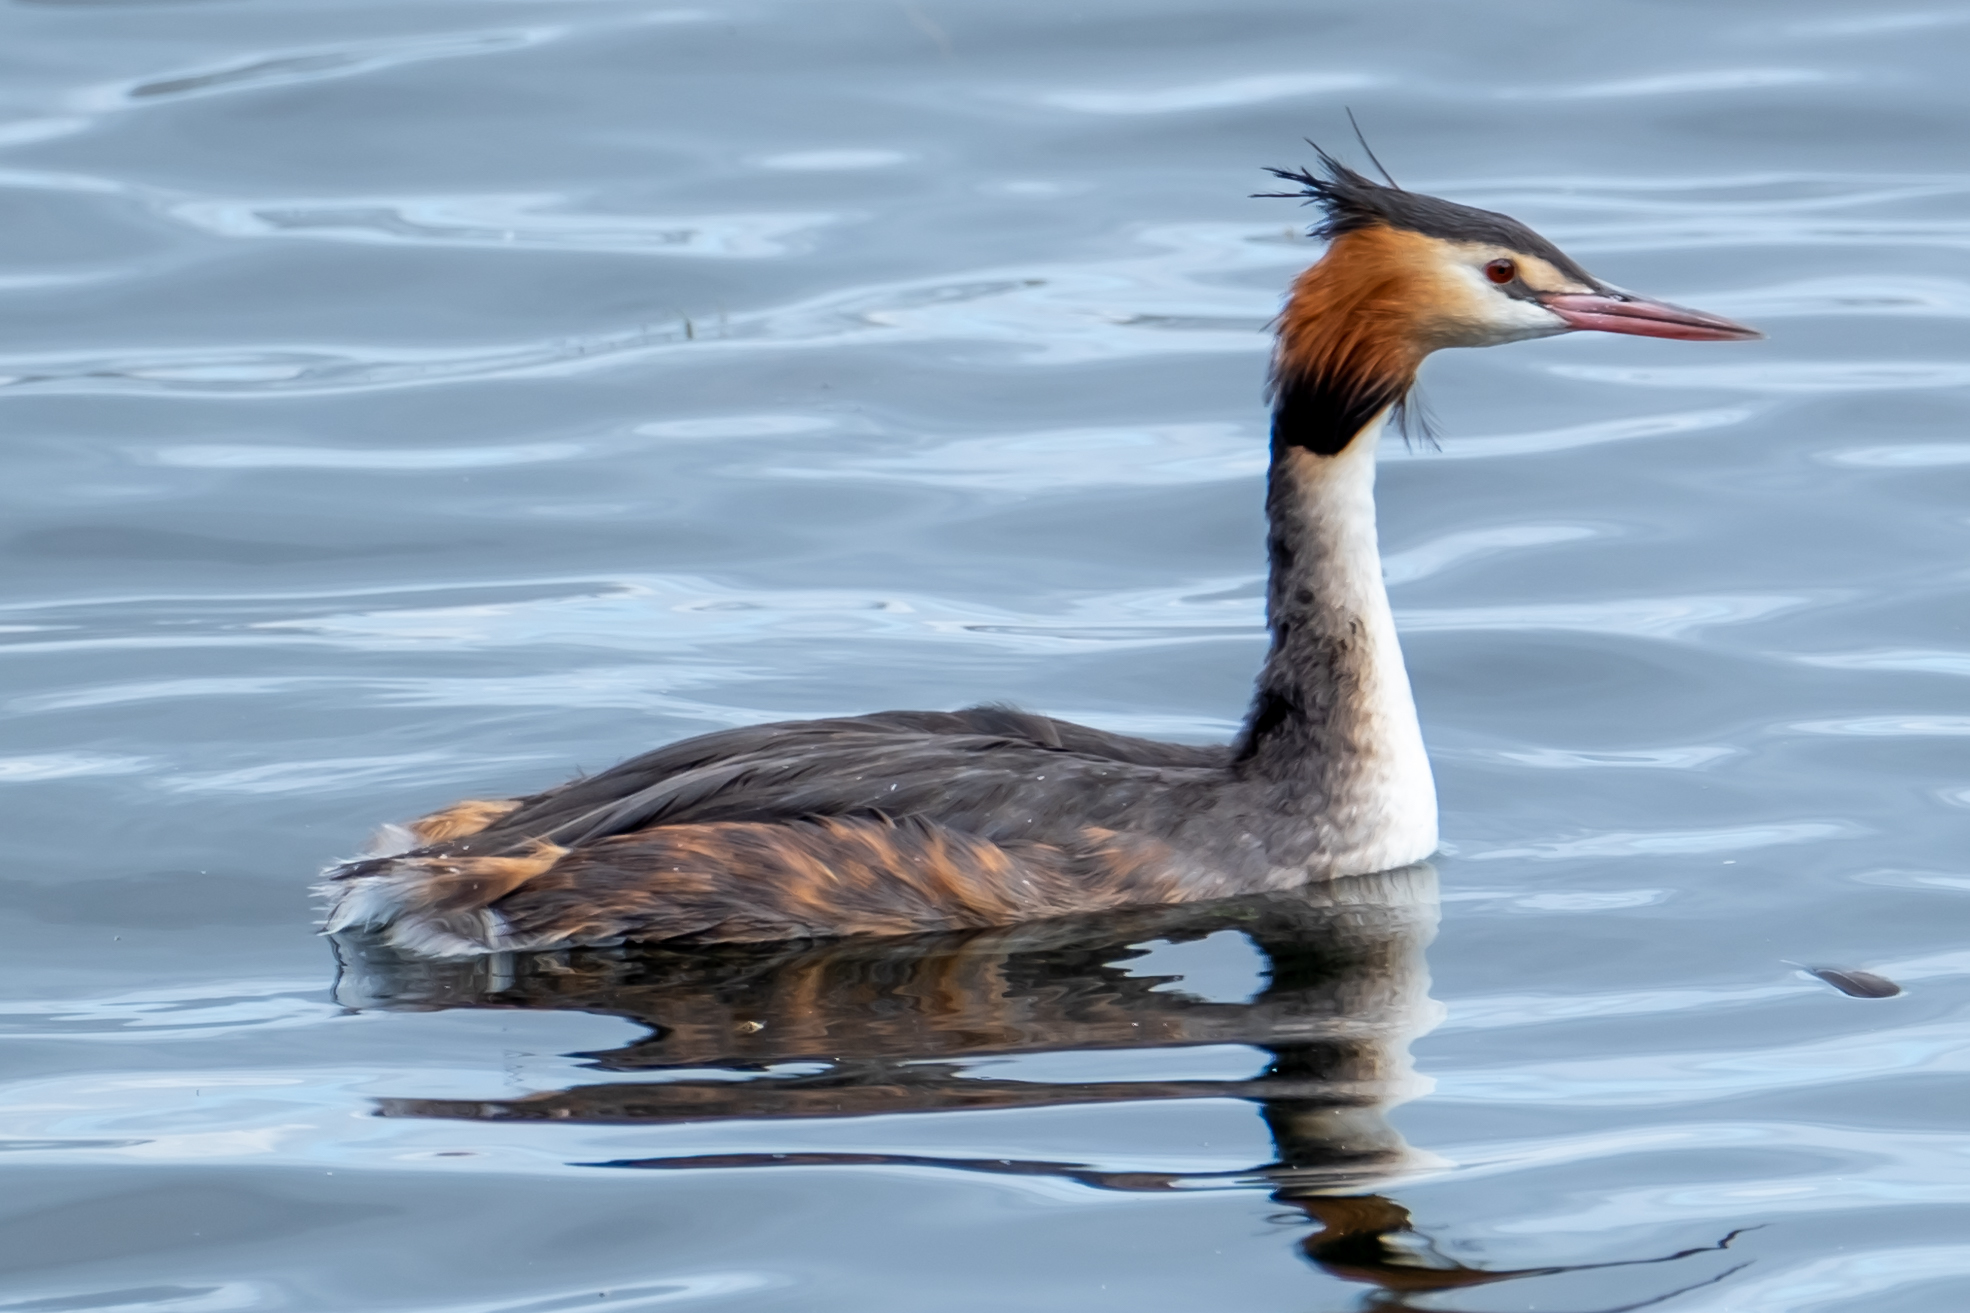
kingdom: Animalia
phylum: Chordata
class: Aves
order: Podicipediformes
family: Podicipedidae
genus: Podiceps
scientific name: Podiceps cristatus
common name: Great crested grebe
